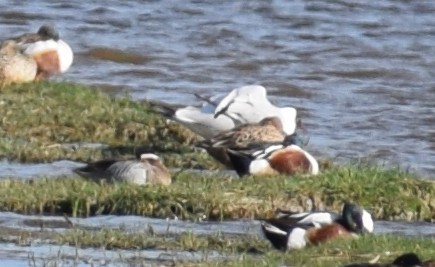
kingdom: Animalia
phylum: Chordata
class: Aves
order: Anseriformes
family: Anatidae
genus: Spatula
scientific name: Spatula querquedula
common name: Garganey
